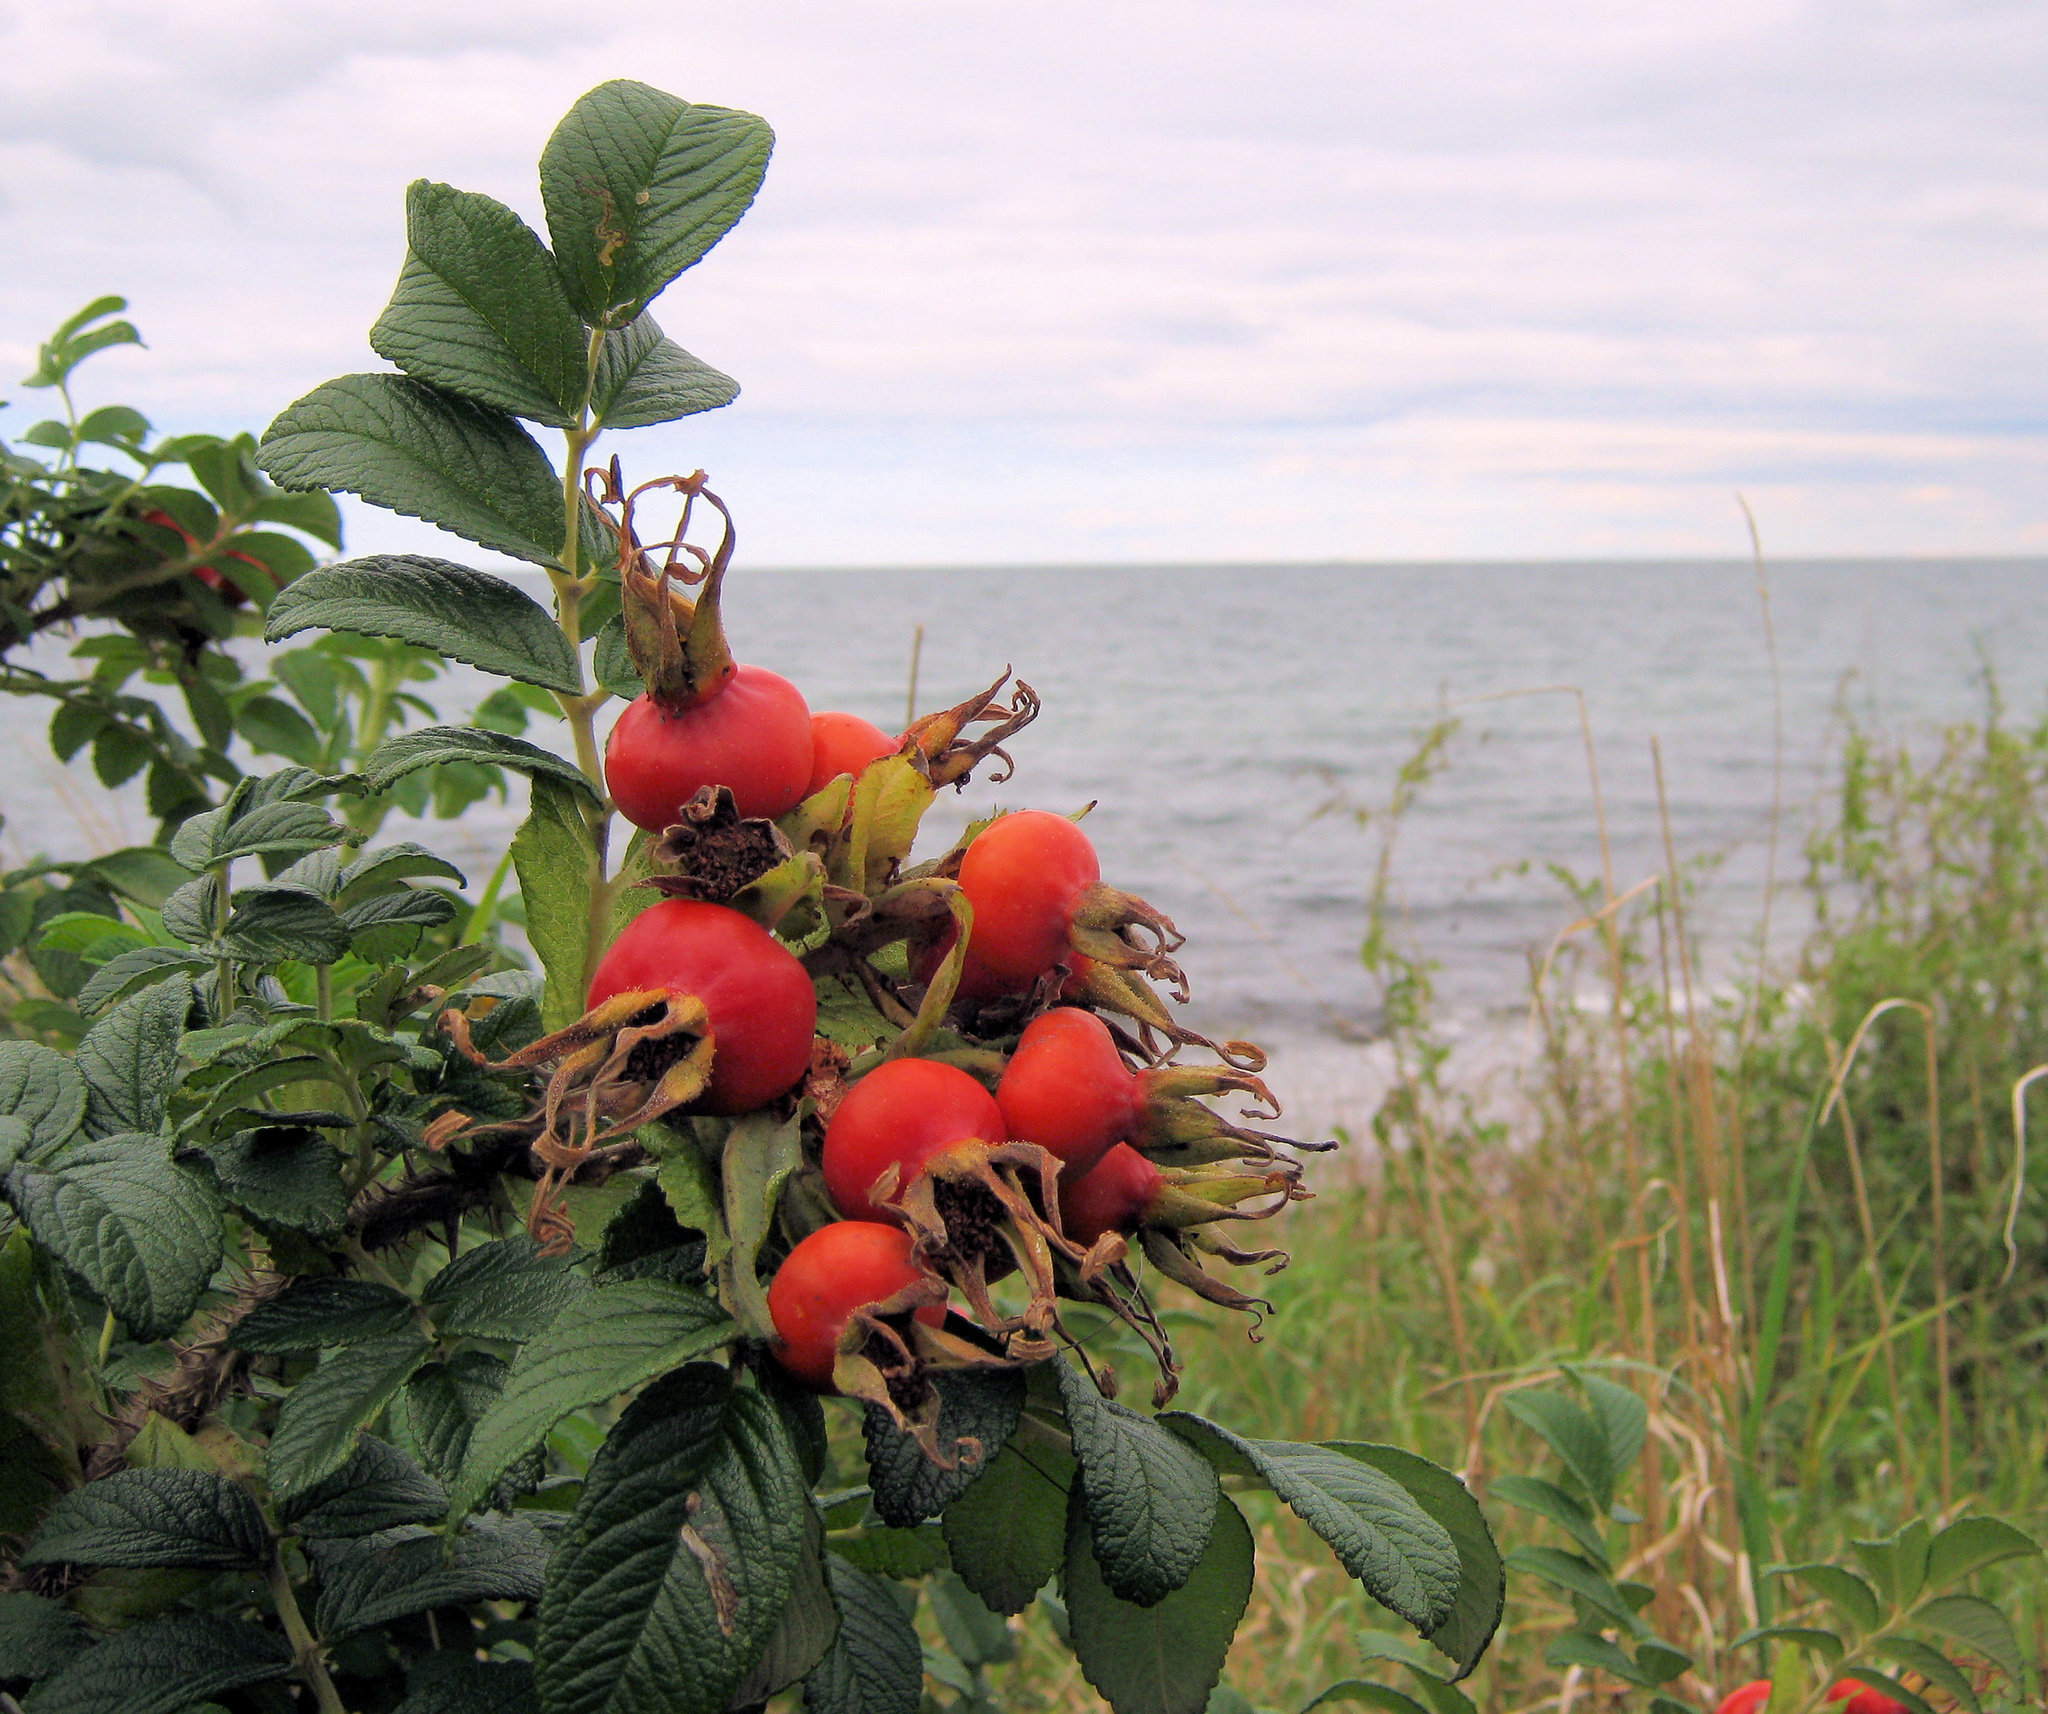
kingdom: Plantae
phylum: Tracheophyta
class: Magnoliopsida
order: Rosales
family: Rosaceae
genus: Rosa
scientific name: Rosa rugosa
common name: Japanese rose
